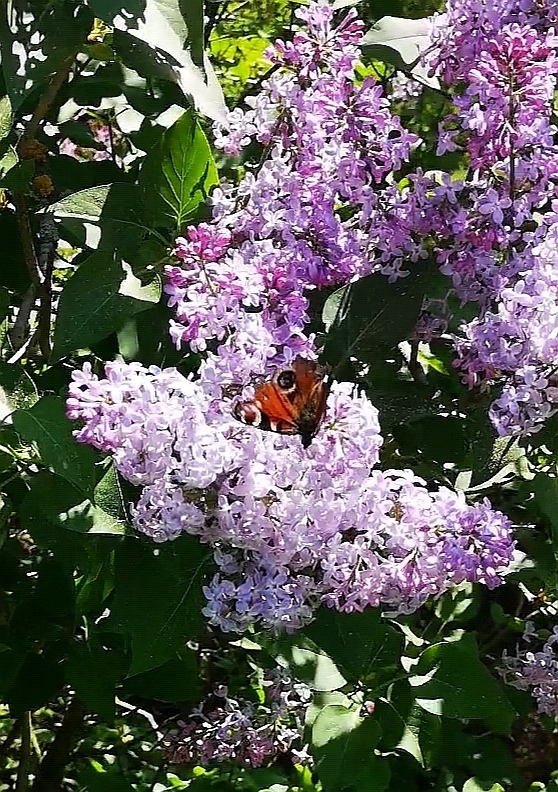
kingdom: Animalia
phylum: Arthropoda
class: Insecta
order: Lepidoptera
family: Nymphalidae
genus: Aglais
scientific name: Aglais io
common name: Peacock
